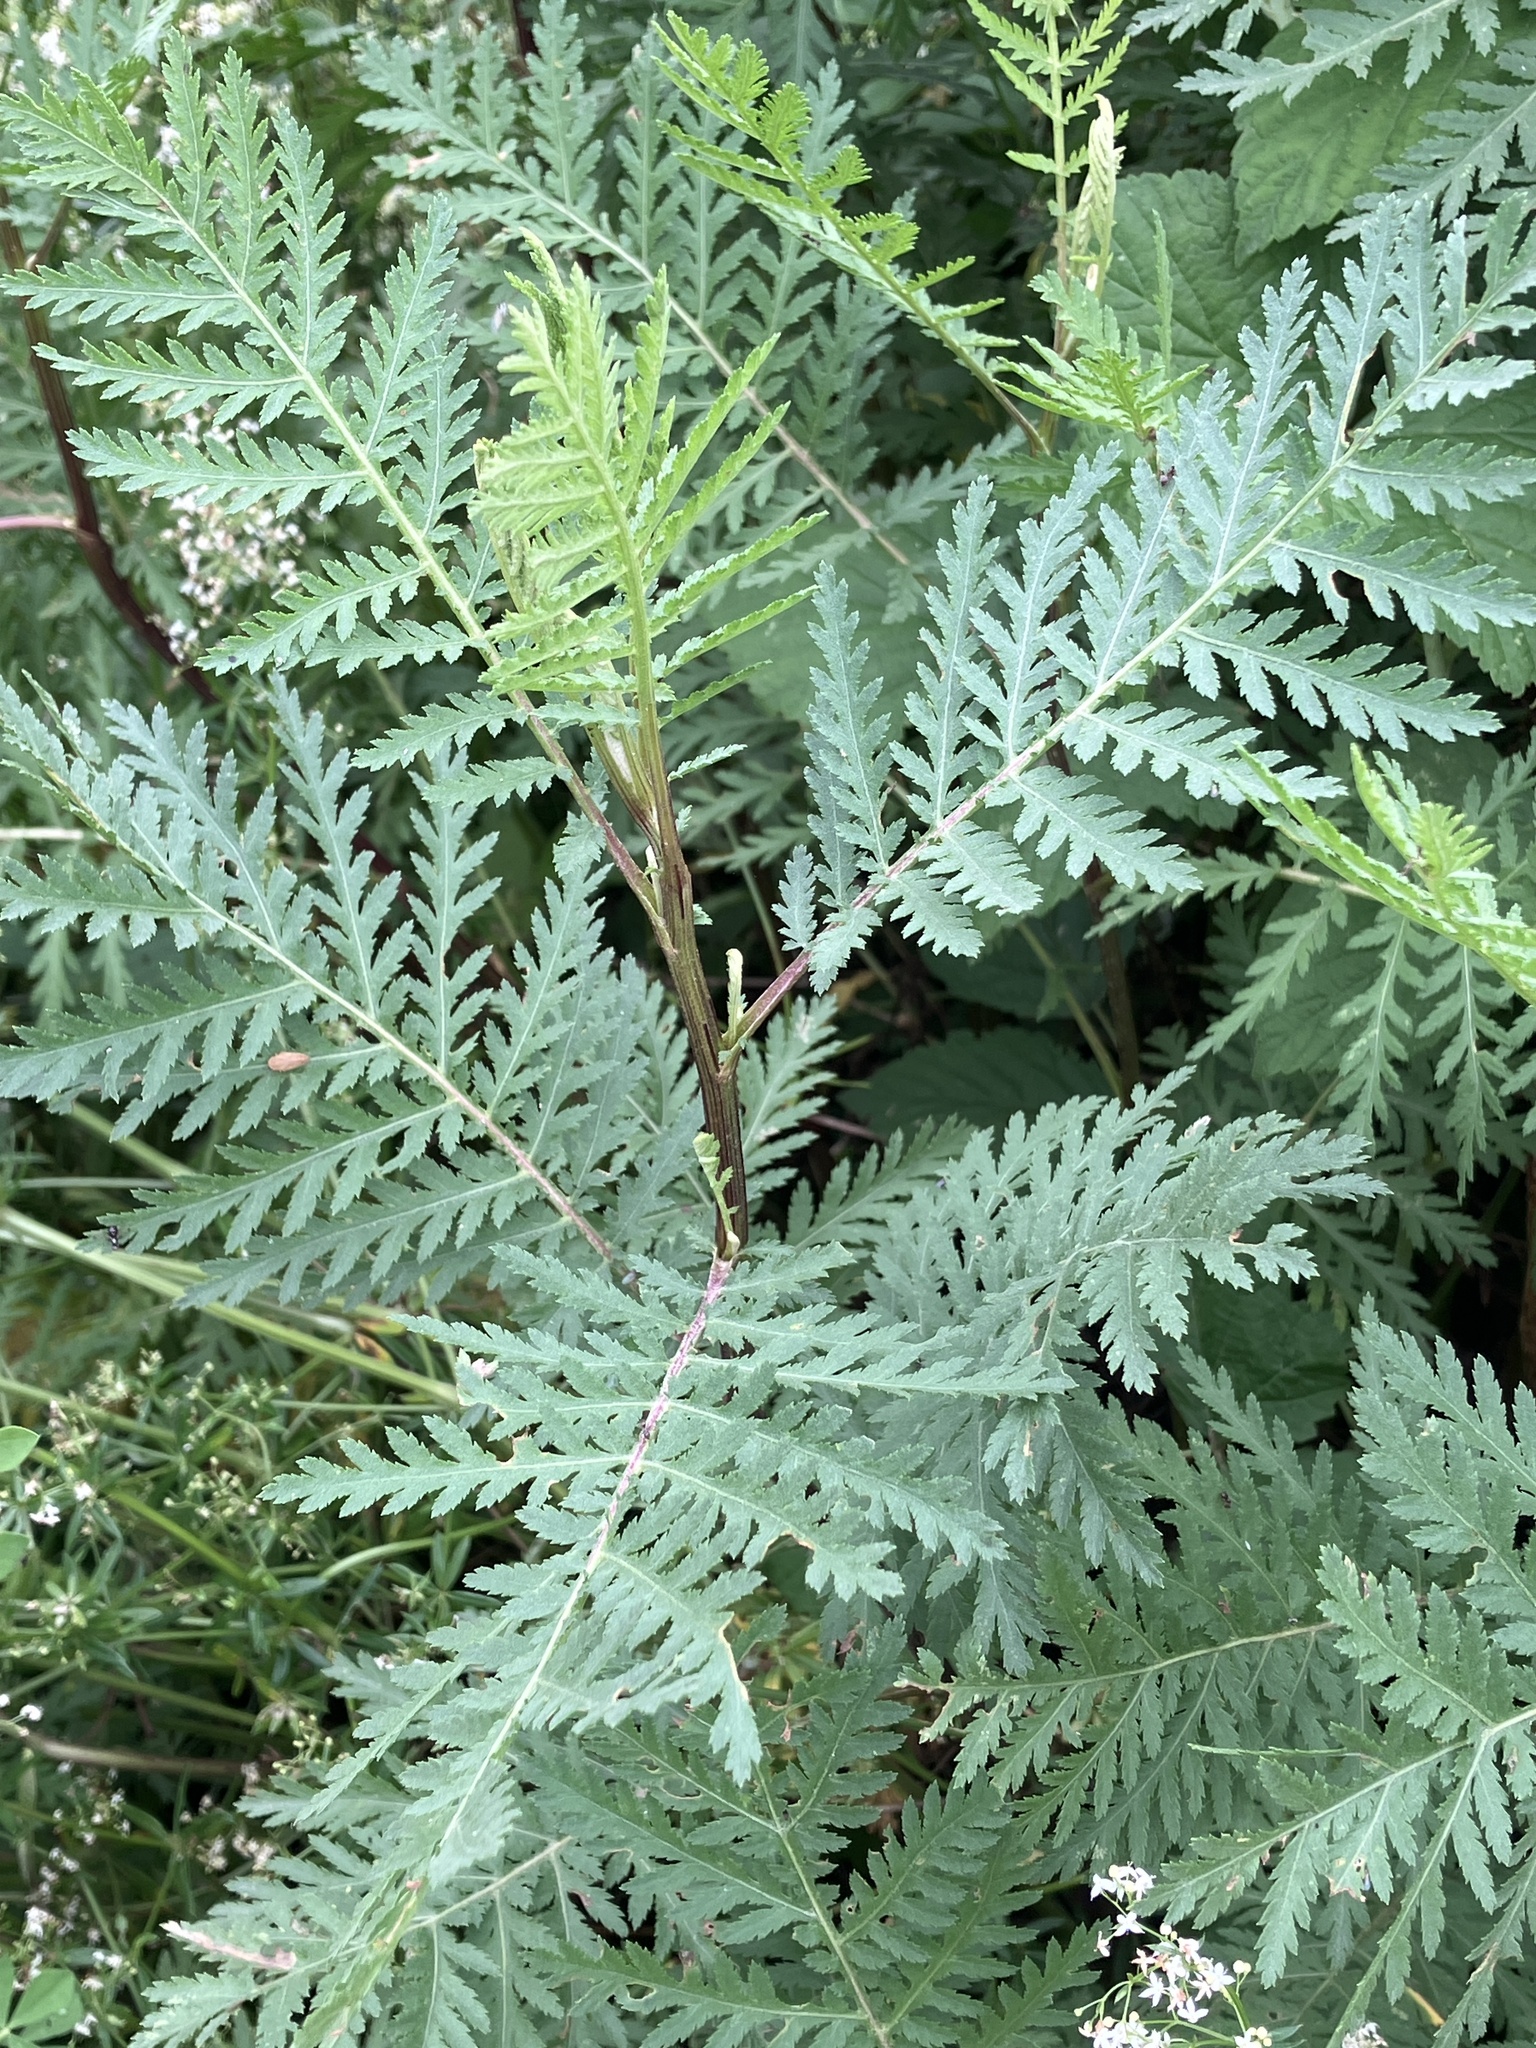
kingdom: Plantae
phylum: Tracheophyta
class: Magnoliopsida
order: Asterales
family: Asteraceae
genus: Tanacetum
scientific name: Tanacetum vulgare
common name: Common tansy
